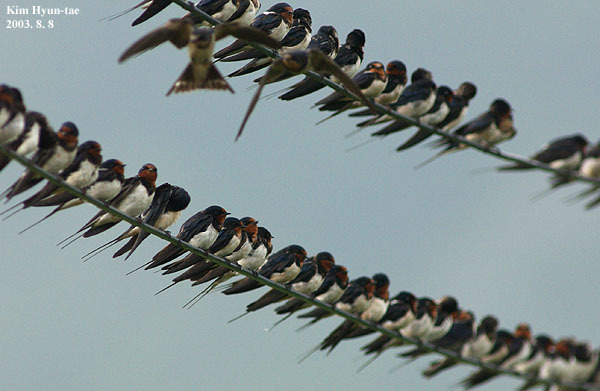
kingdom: Animalia
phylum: Chordata
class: Aves
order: Passeriformes
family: Hirundinidae
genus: Hirundo
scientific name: Hirundo rustica
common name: Barn swallow
